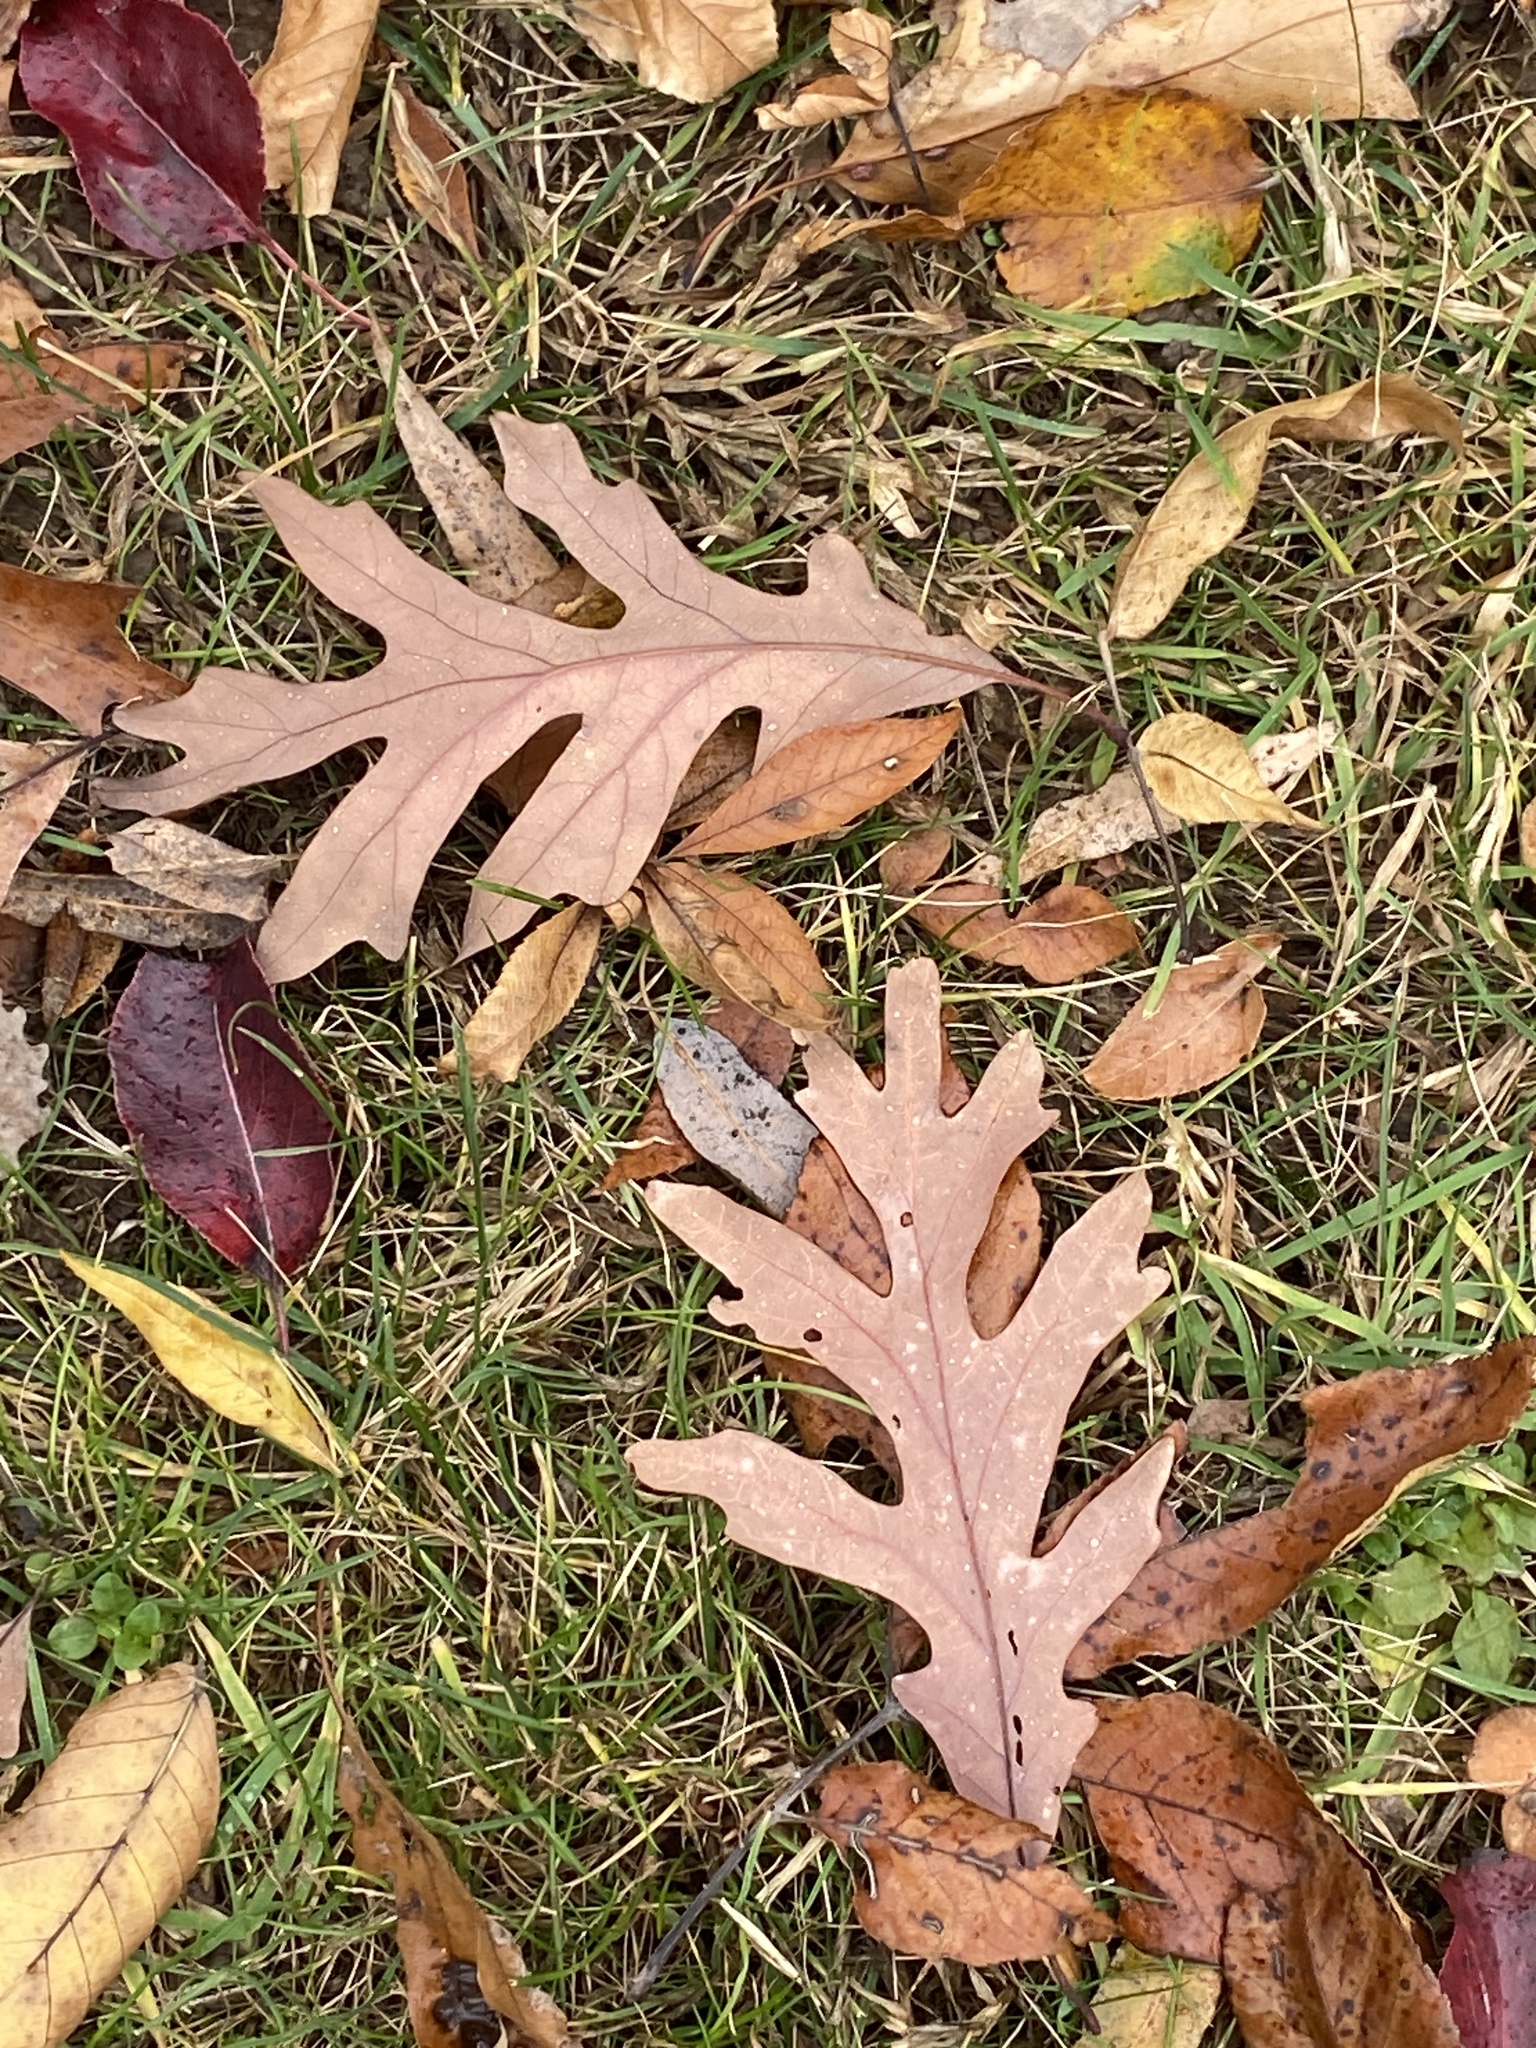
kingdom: Plantae
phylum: Tracheophyta
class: Magnoliopsida
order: Fagales
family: Fagaceae
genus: Quercus
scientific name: Quercus alba
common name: White oak
